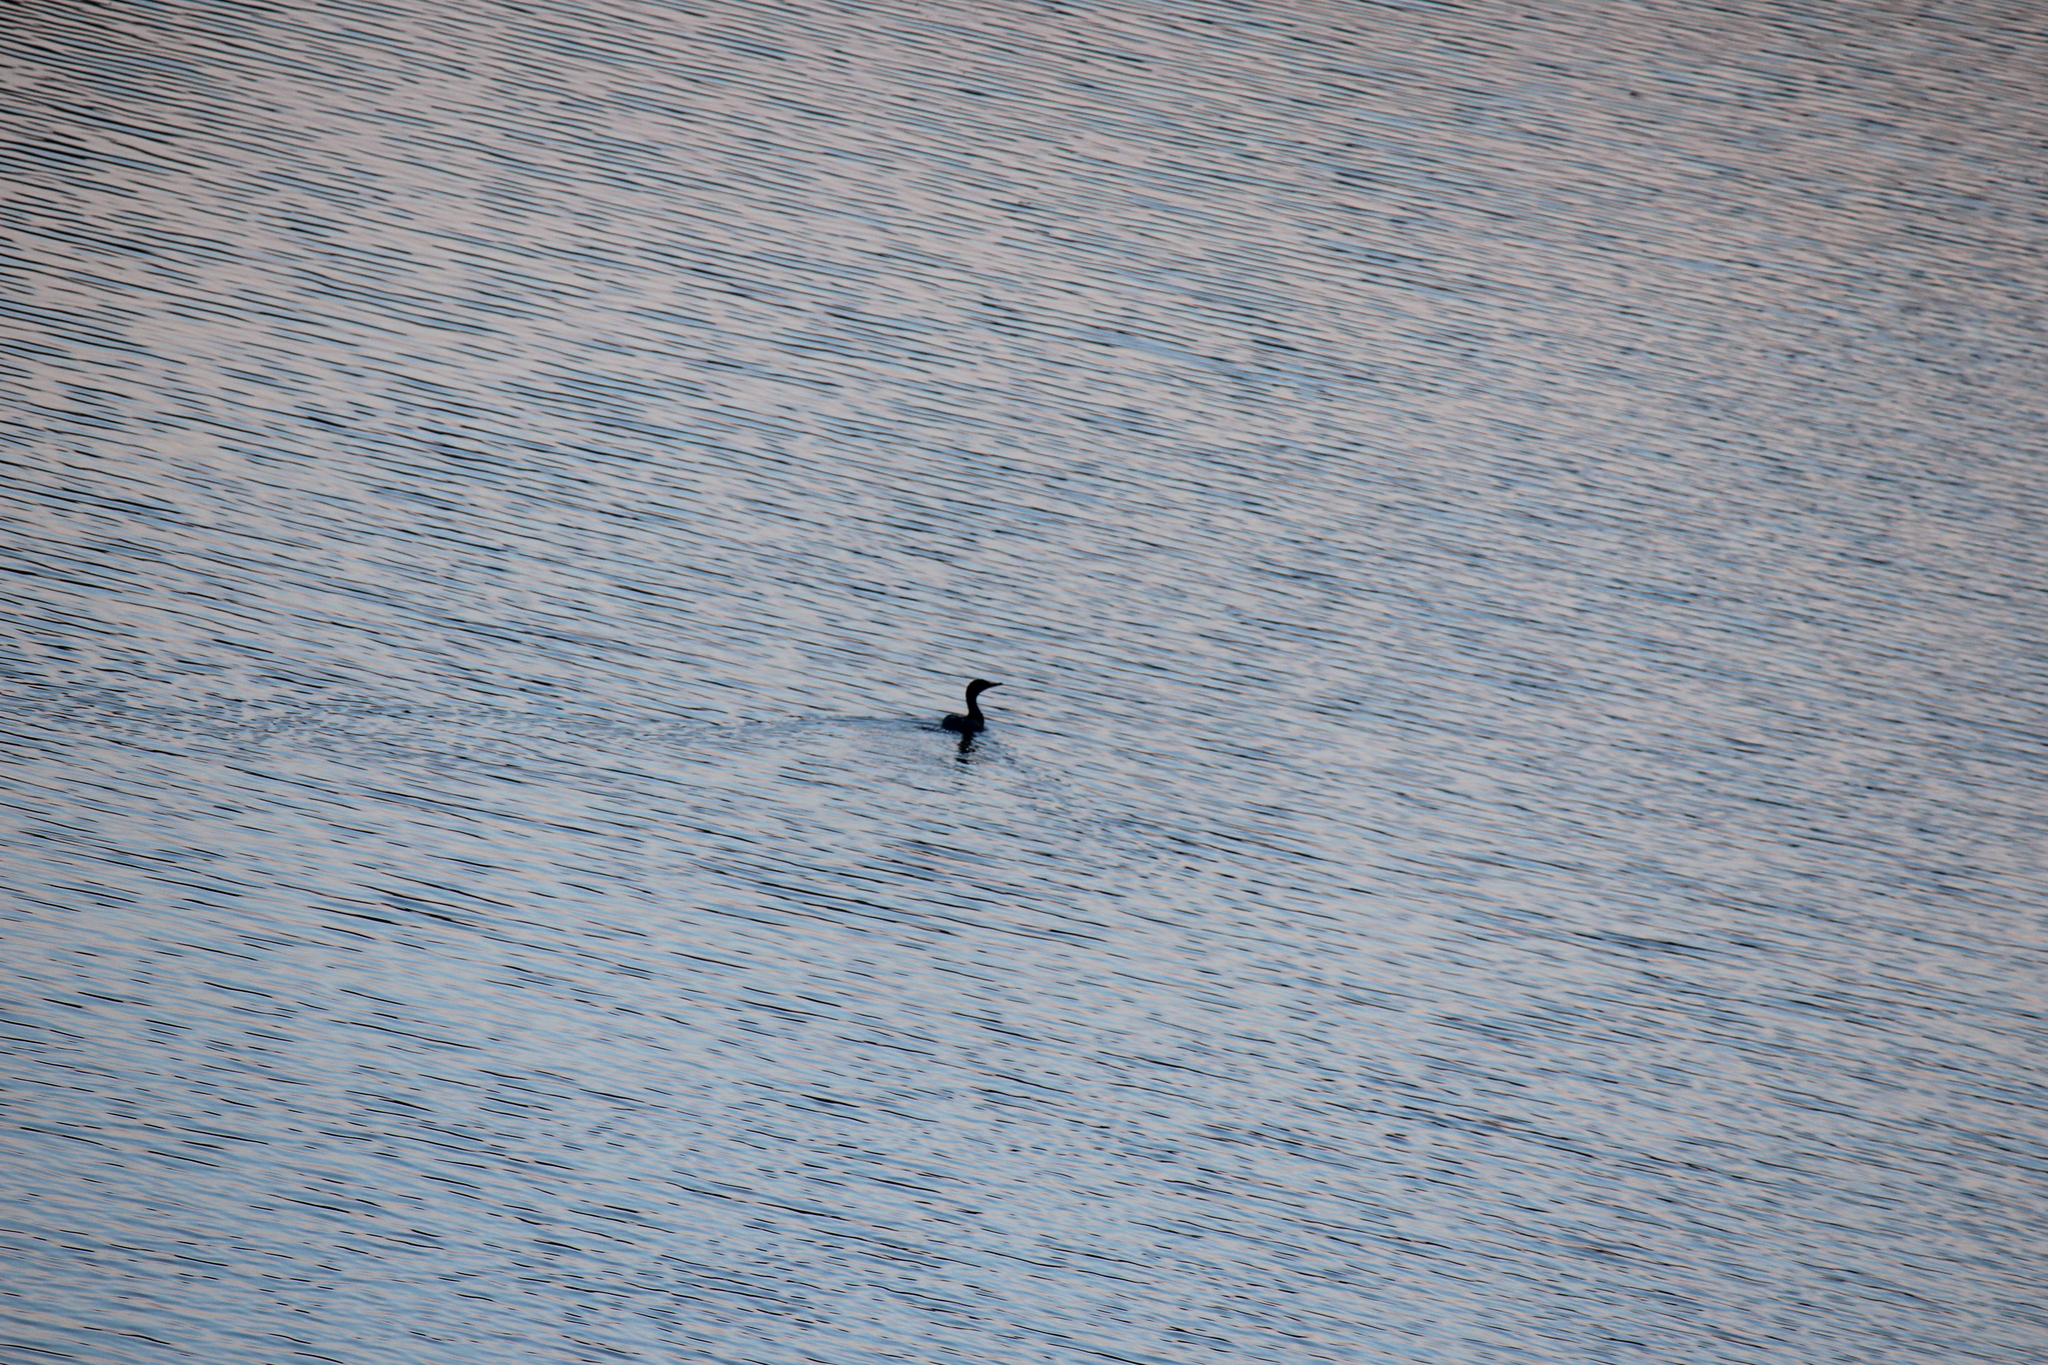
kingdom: Animalia
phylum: Chordata
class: Aves
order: Suliformes
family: Phalacrocoracidae
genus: Phalacrocorax
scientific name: Phalacrocorax auritus
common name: Double-crested cormorant
